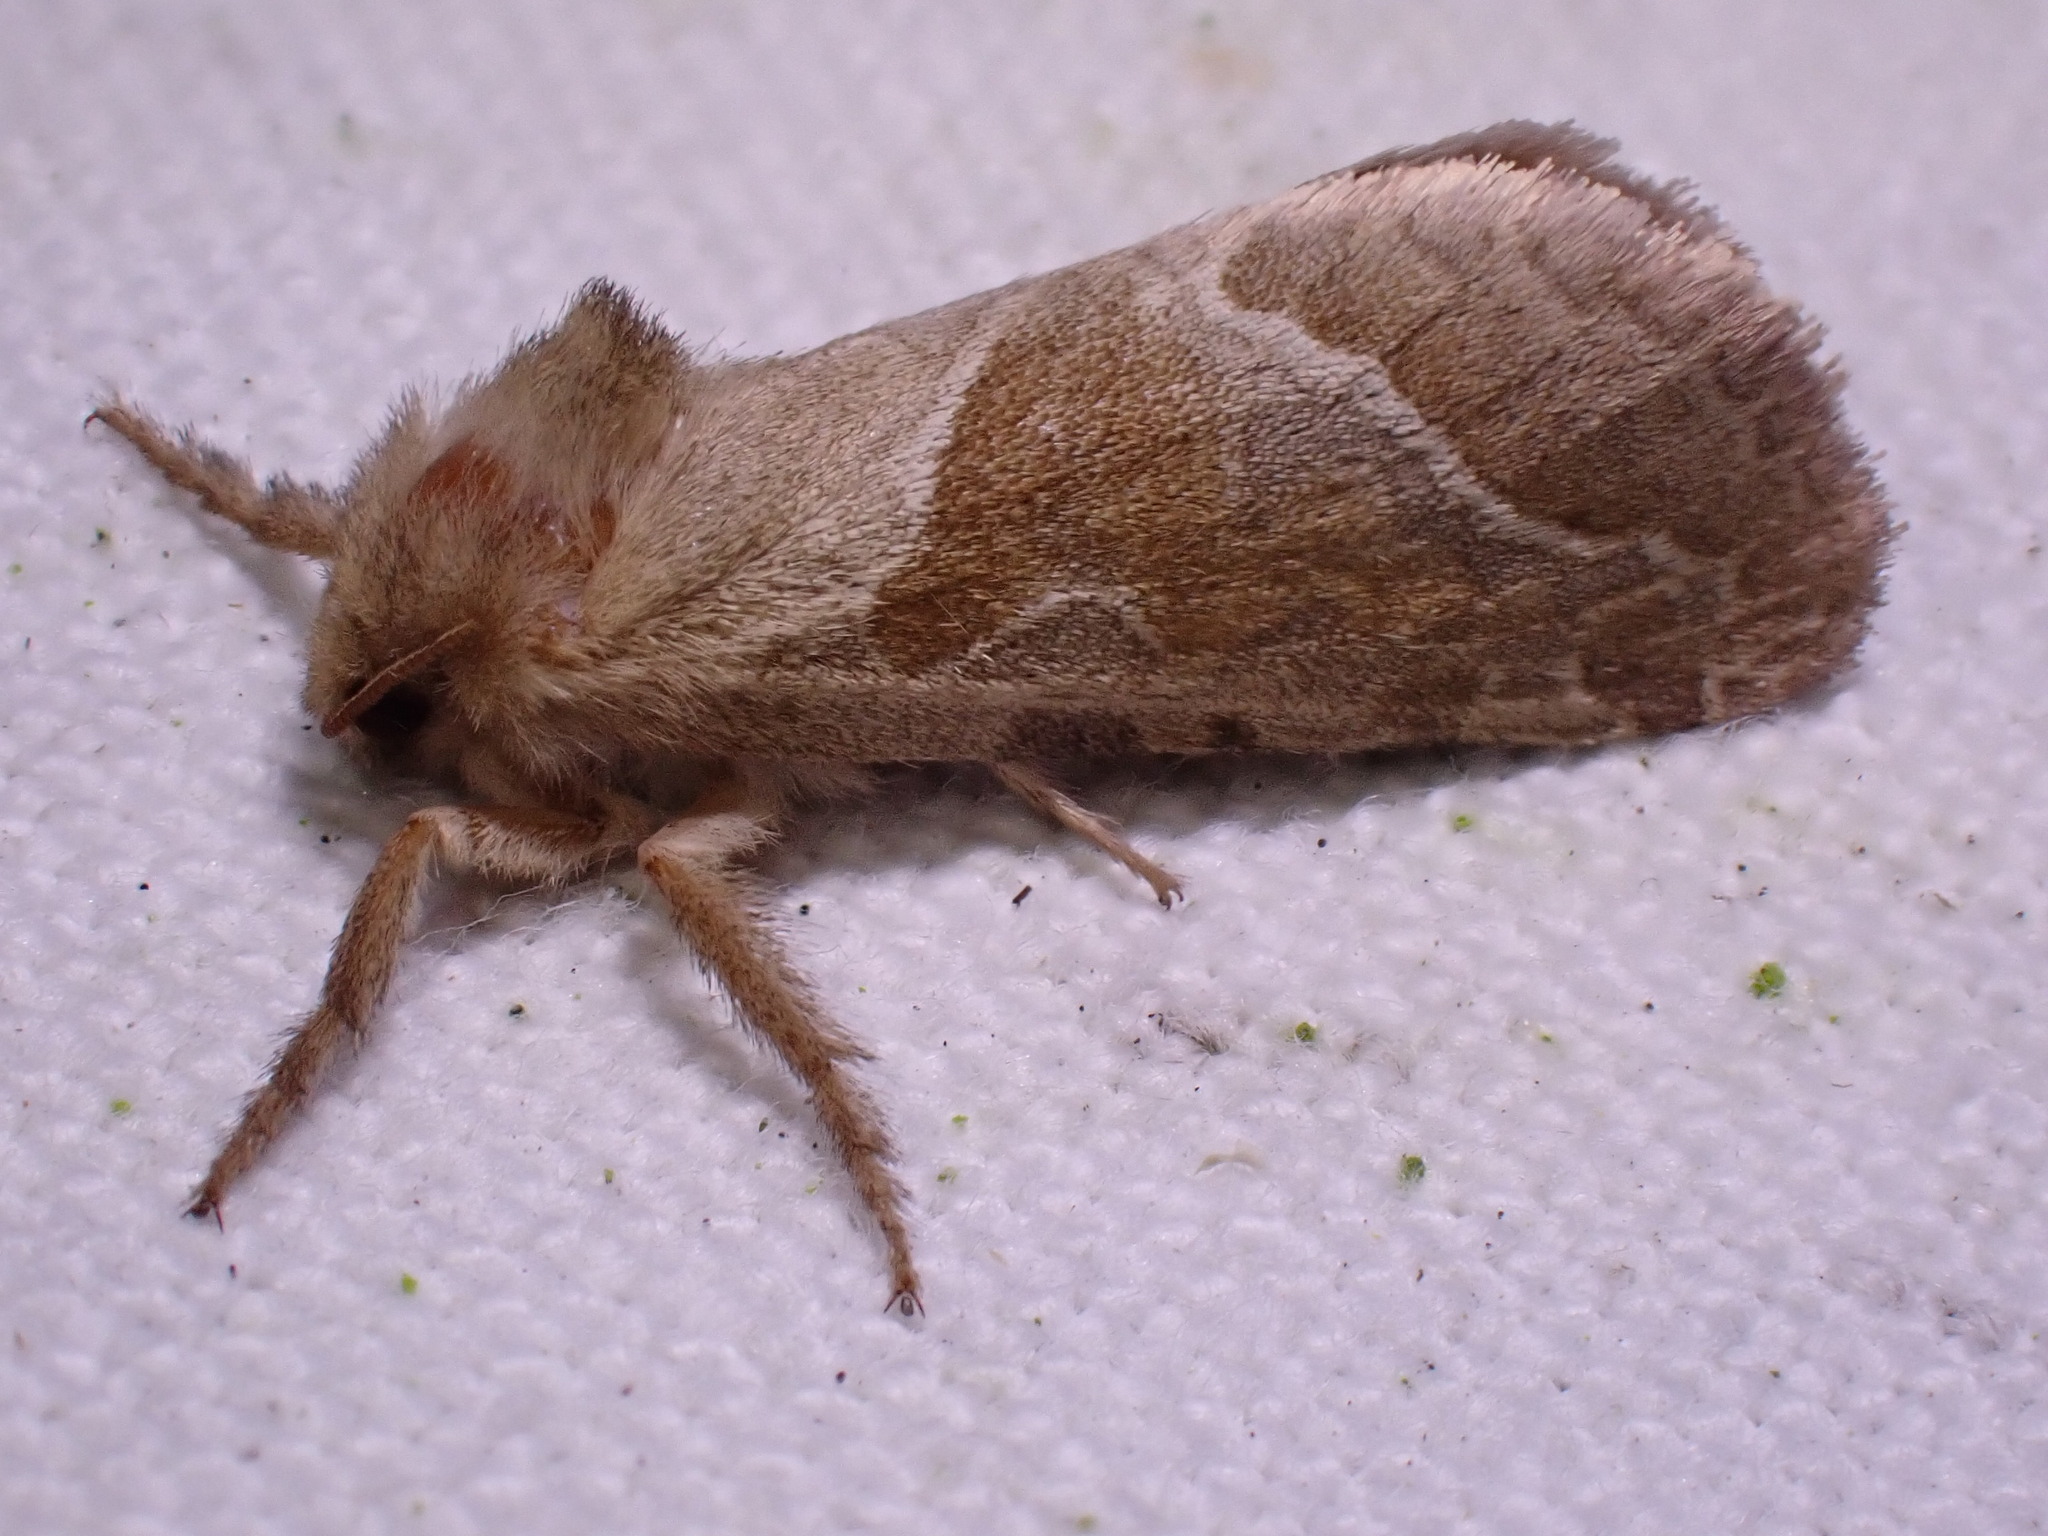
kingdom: Animalia
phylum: Arthropoda
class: Insecta
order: Lepidoptera
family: Hepialidae
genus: Triodia
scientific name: Triodia sylvina
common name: Orange swift
